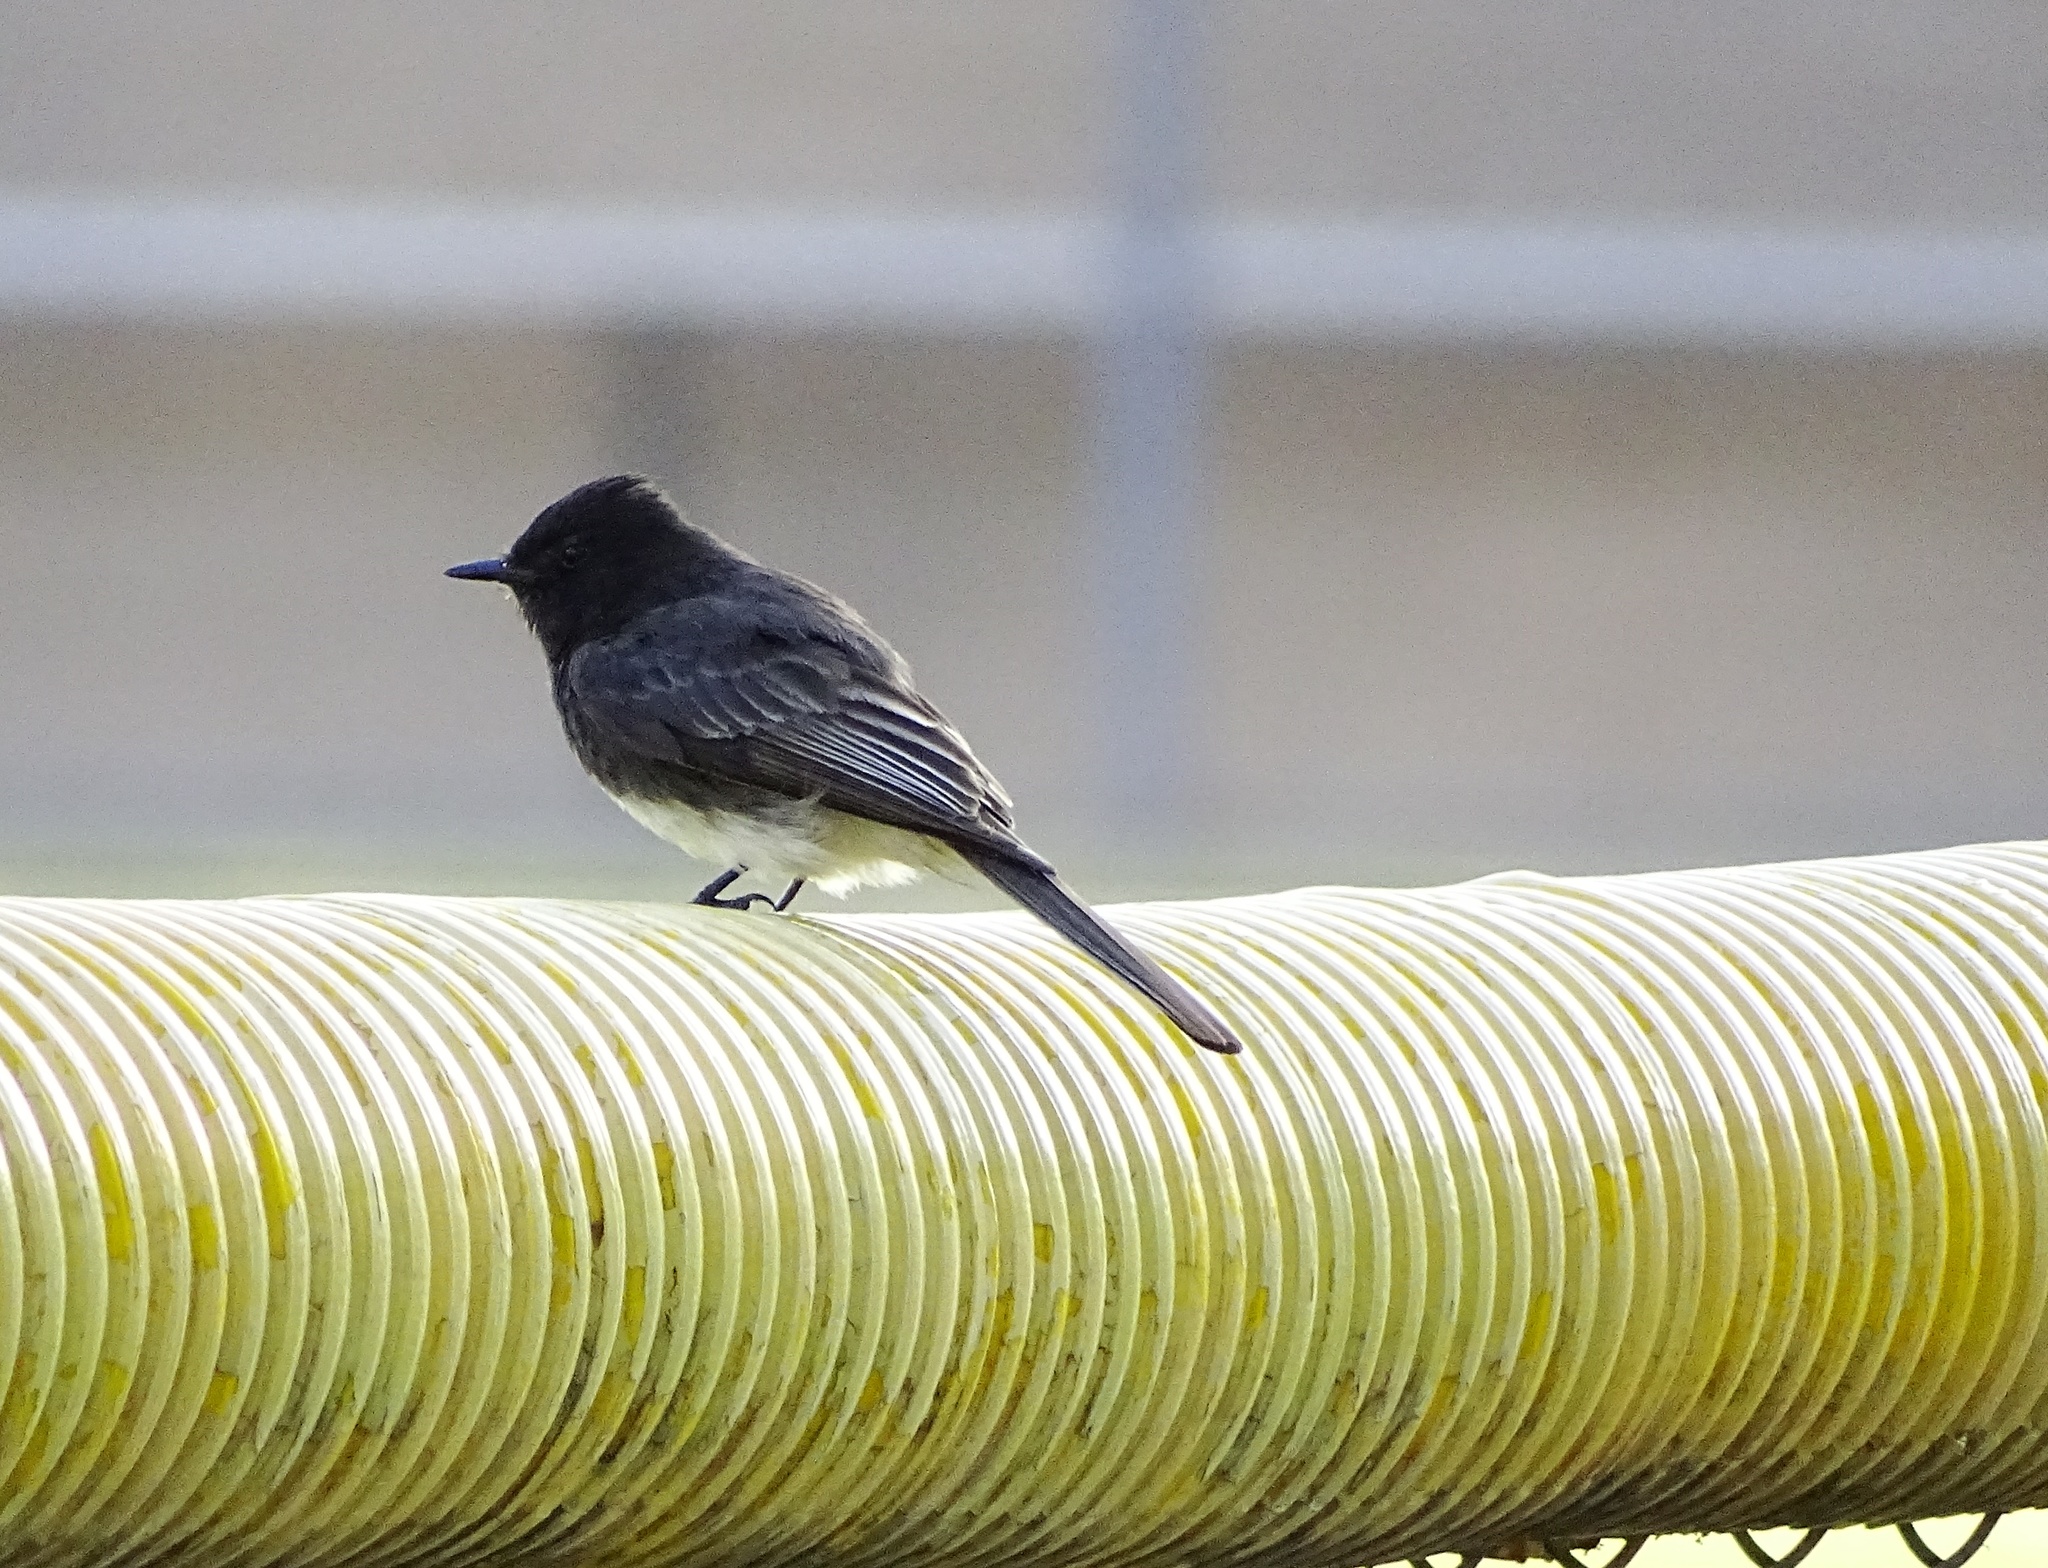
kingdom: Animalia
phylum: Chordata
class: Aves
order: Passeriformes
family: Tyrannidae
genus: Sayornis
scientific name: Sayornis nigricans
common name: Black phoebe
